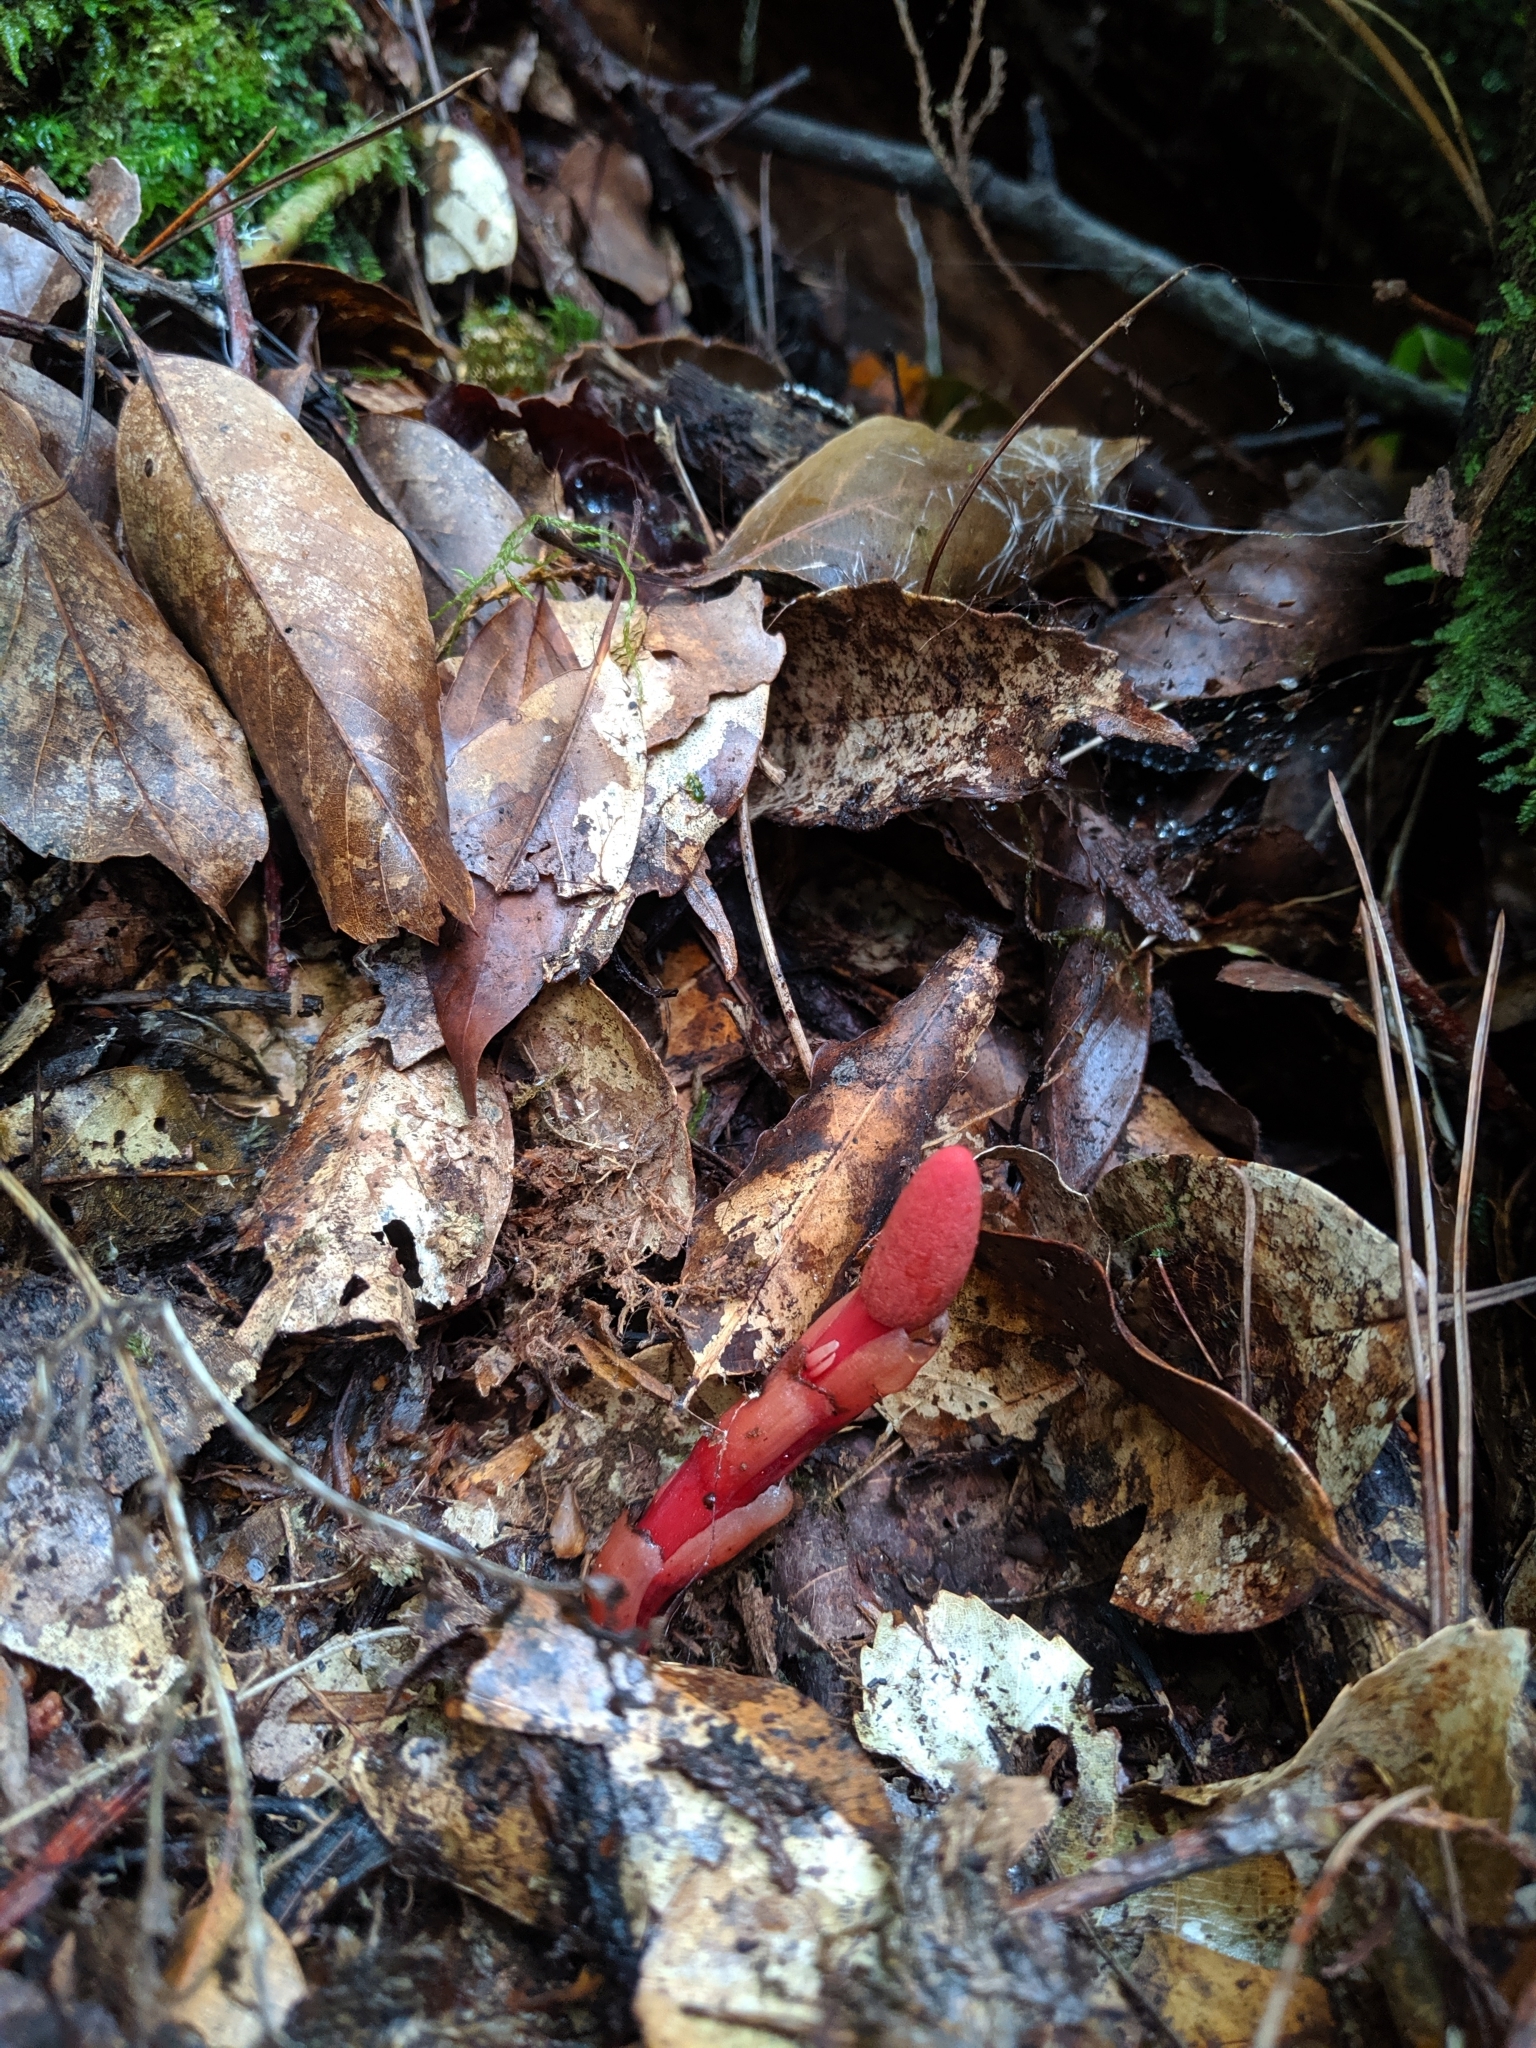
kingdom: Plantae
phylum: Tracheophyta
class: Magnoliopsida
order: Santalales
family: Balanophoraceae
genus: Balanophora
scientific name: Balanophora laxiflora
